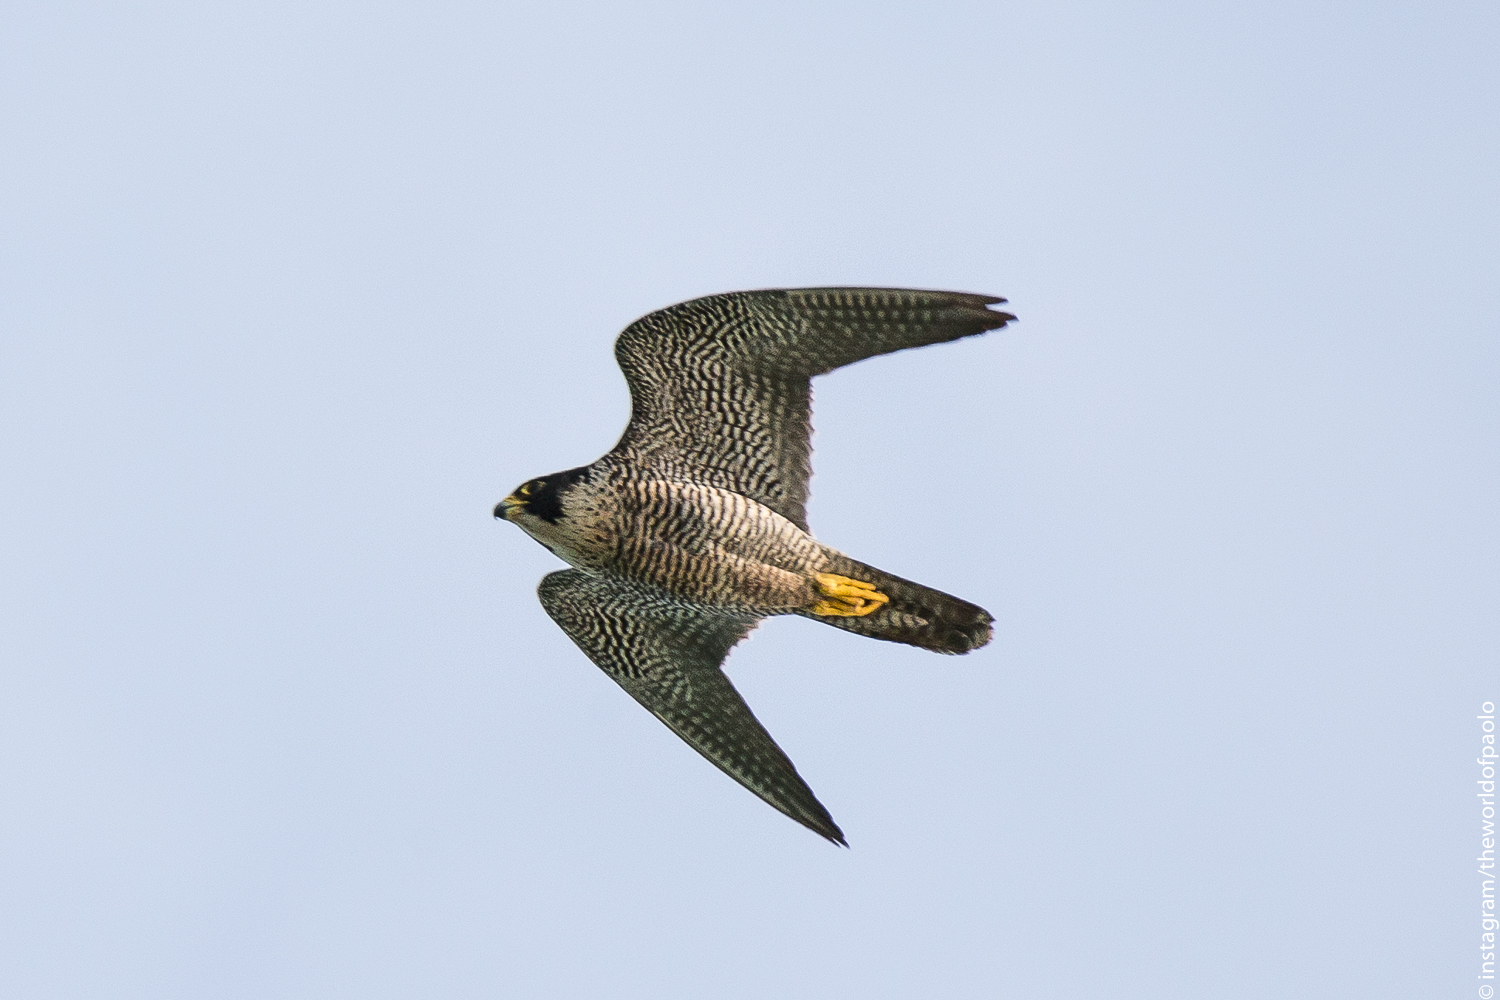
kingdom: Animalia
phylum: Chordata
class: Aves
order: Falconiformes
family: Falconidae
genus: Falco
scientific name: Falco peregrinus
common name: Peregrine falcon
